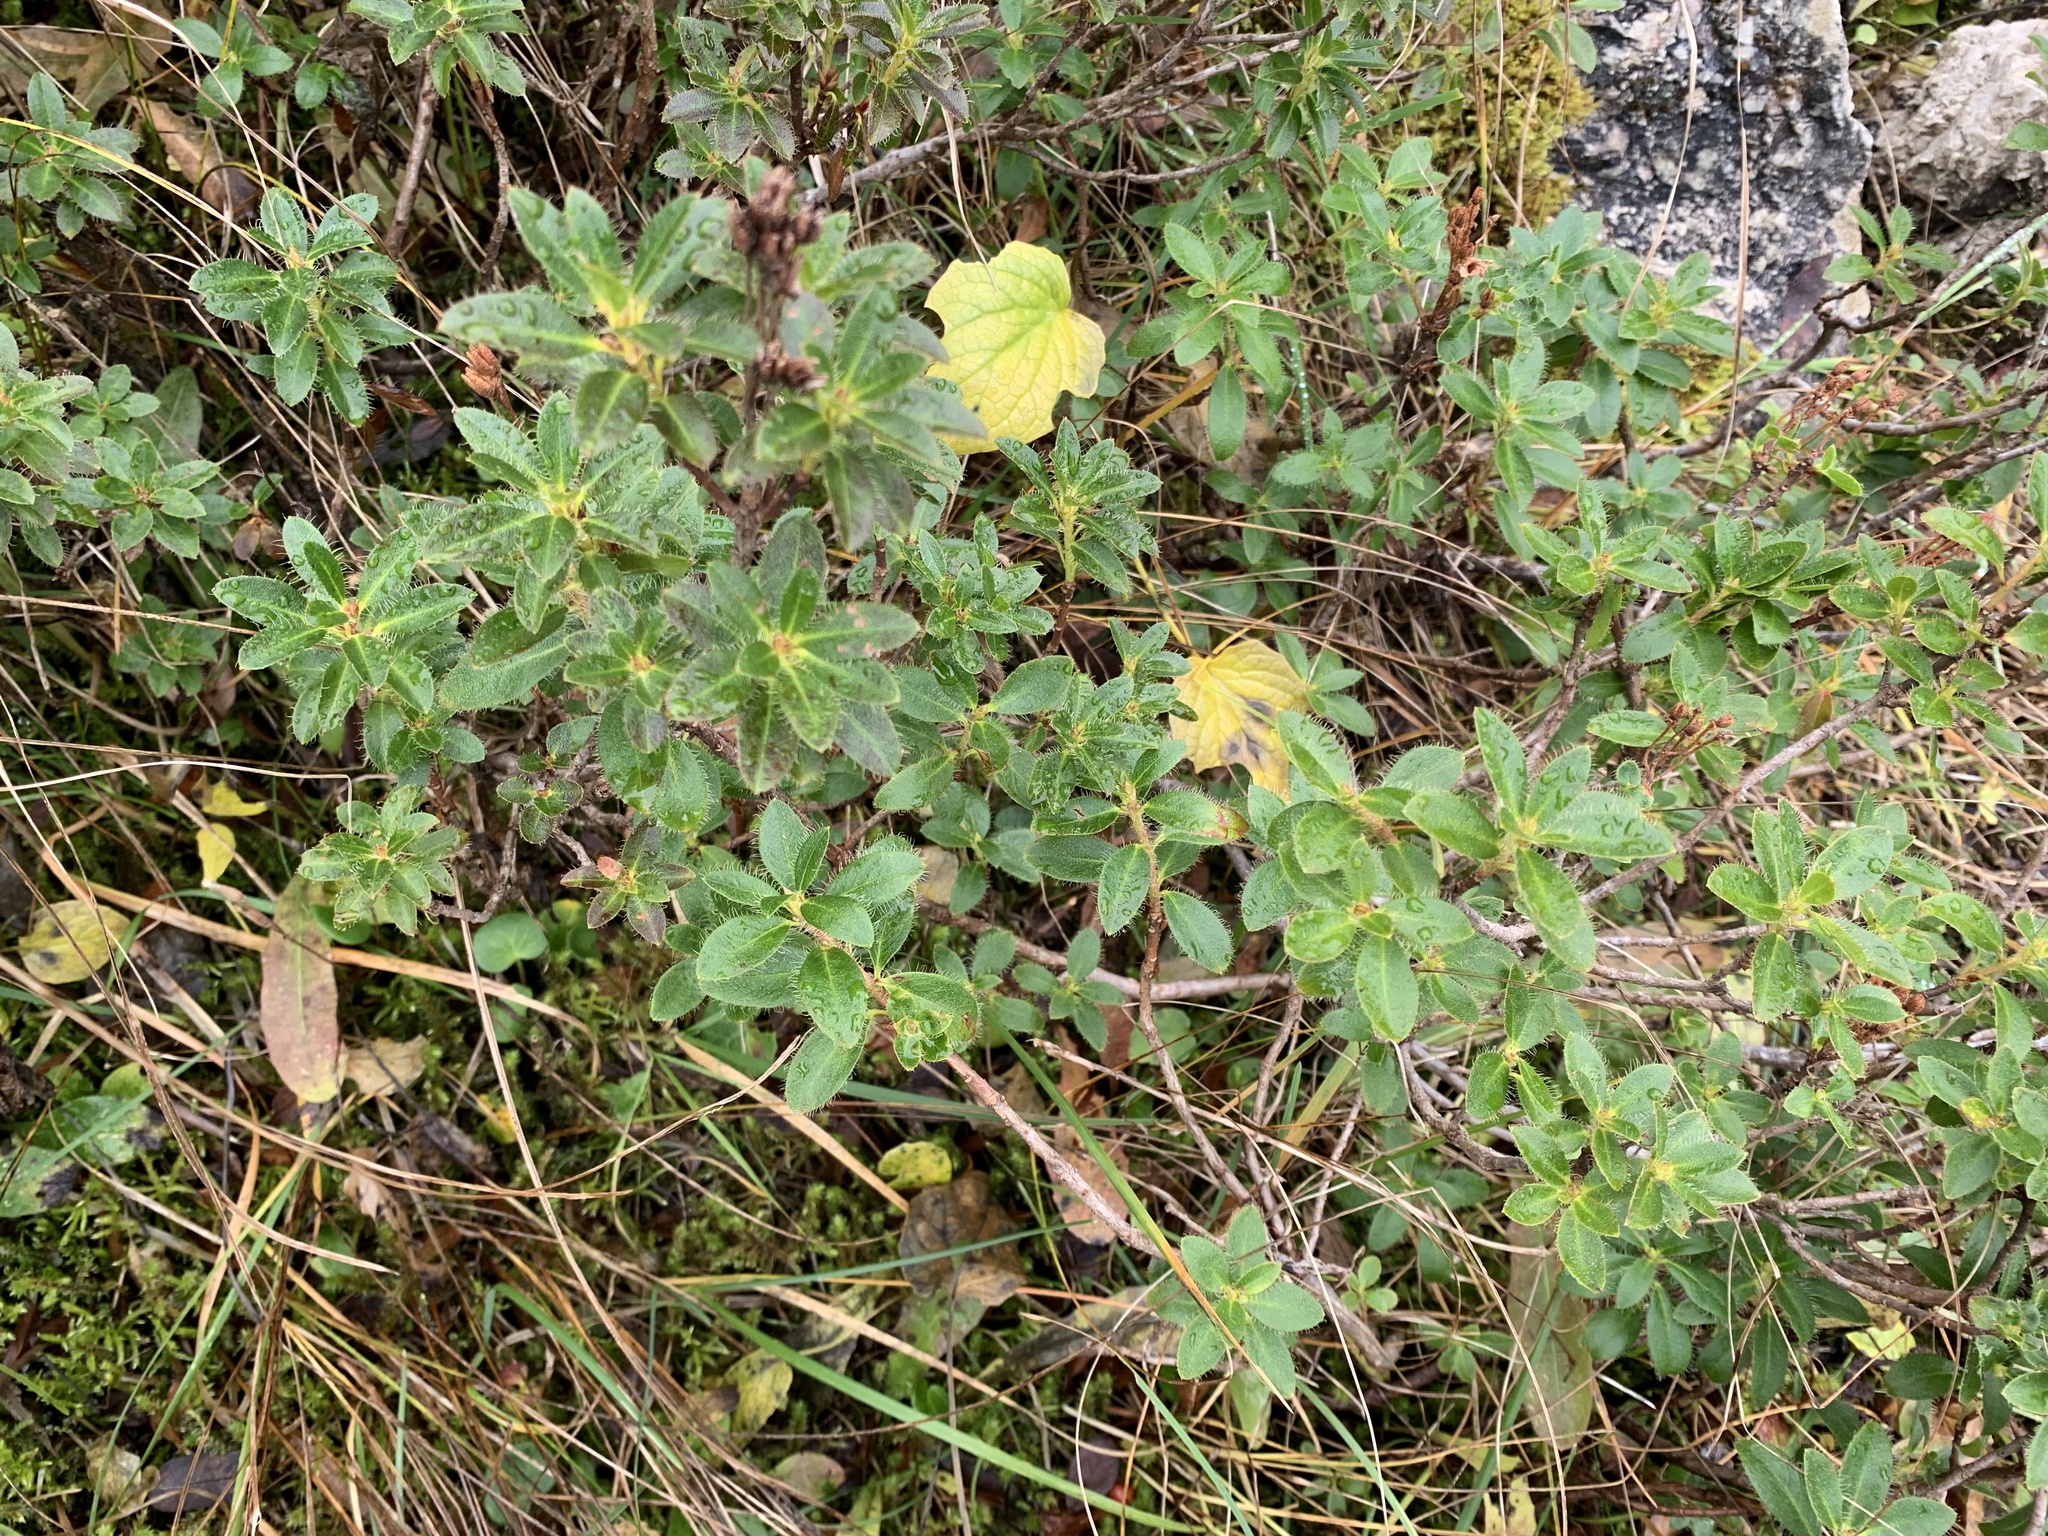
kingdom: Plantae
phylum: Tracheophyta
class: Magnoliopsida
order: Ericales
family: Ericaceae
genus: Rhododendron
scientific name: Rhododendron hirsutum
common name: Hairy alpenrose
